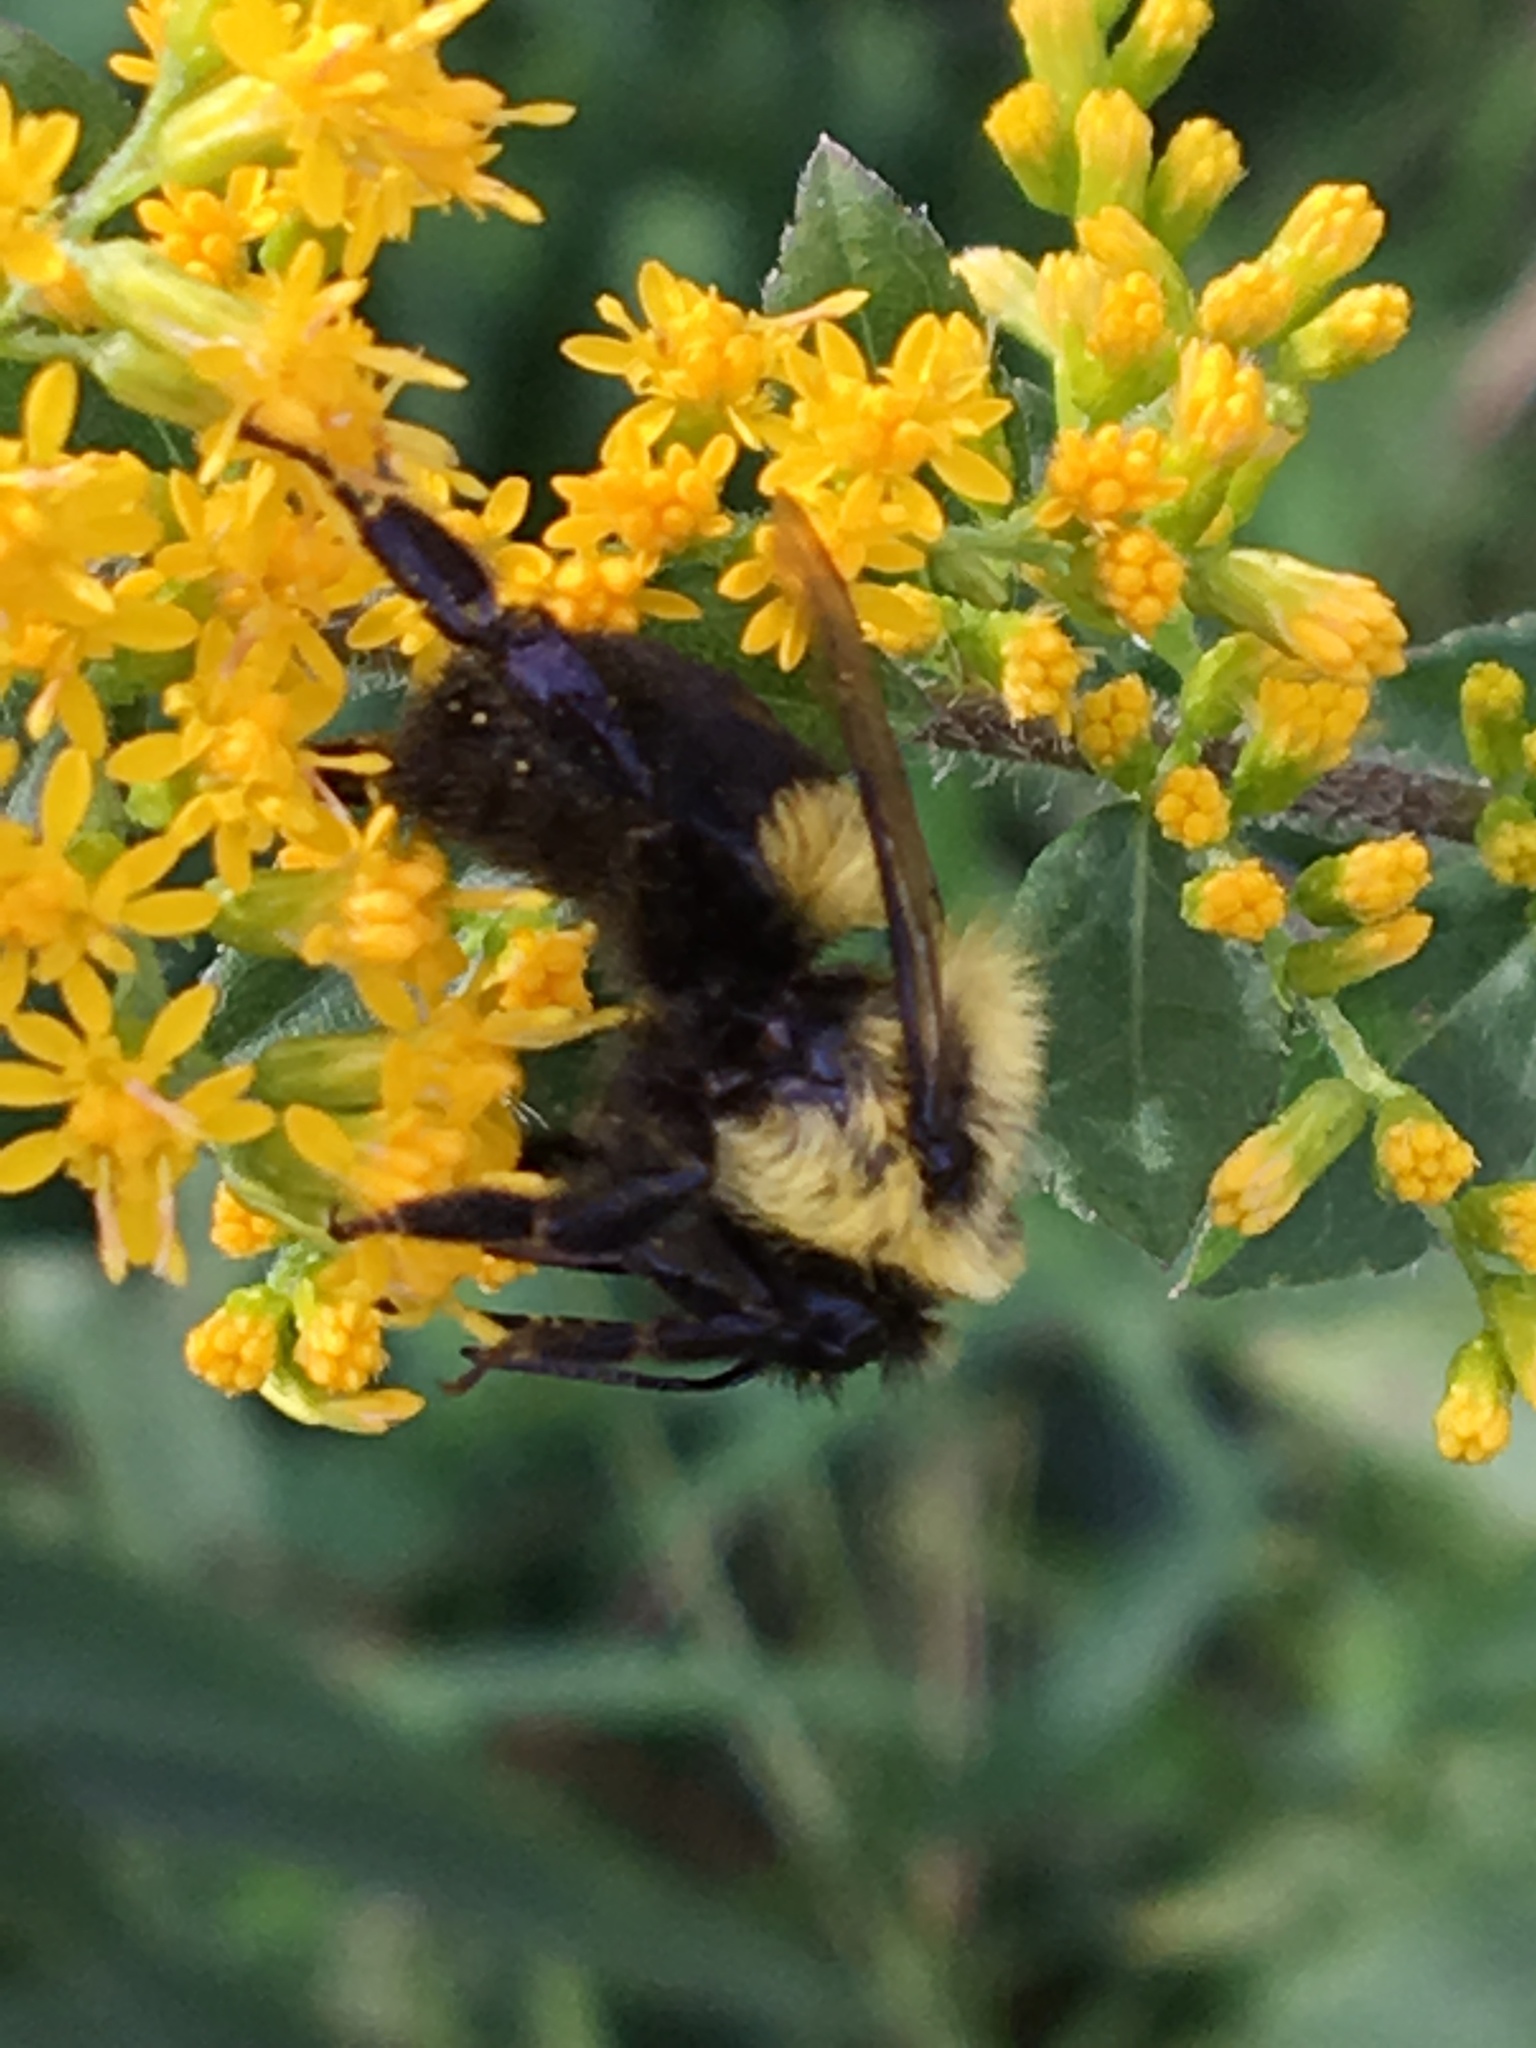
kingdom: Animalia
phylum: Arthropoda
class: Insecta
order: Hymenoptera
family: Apidae
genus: Bombus
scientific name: Bombus impatiens
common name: Common eastern bumble bee
